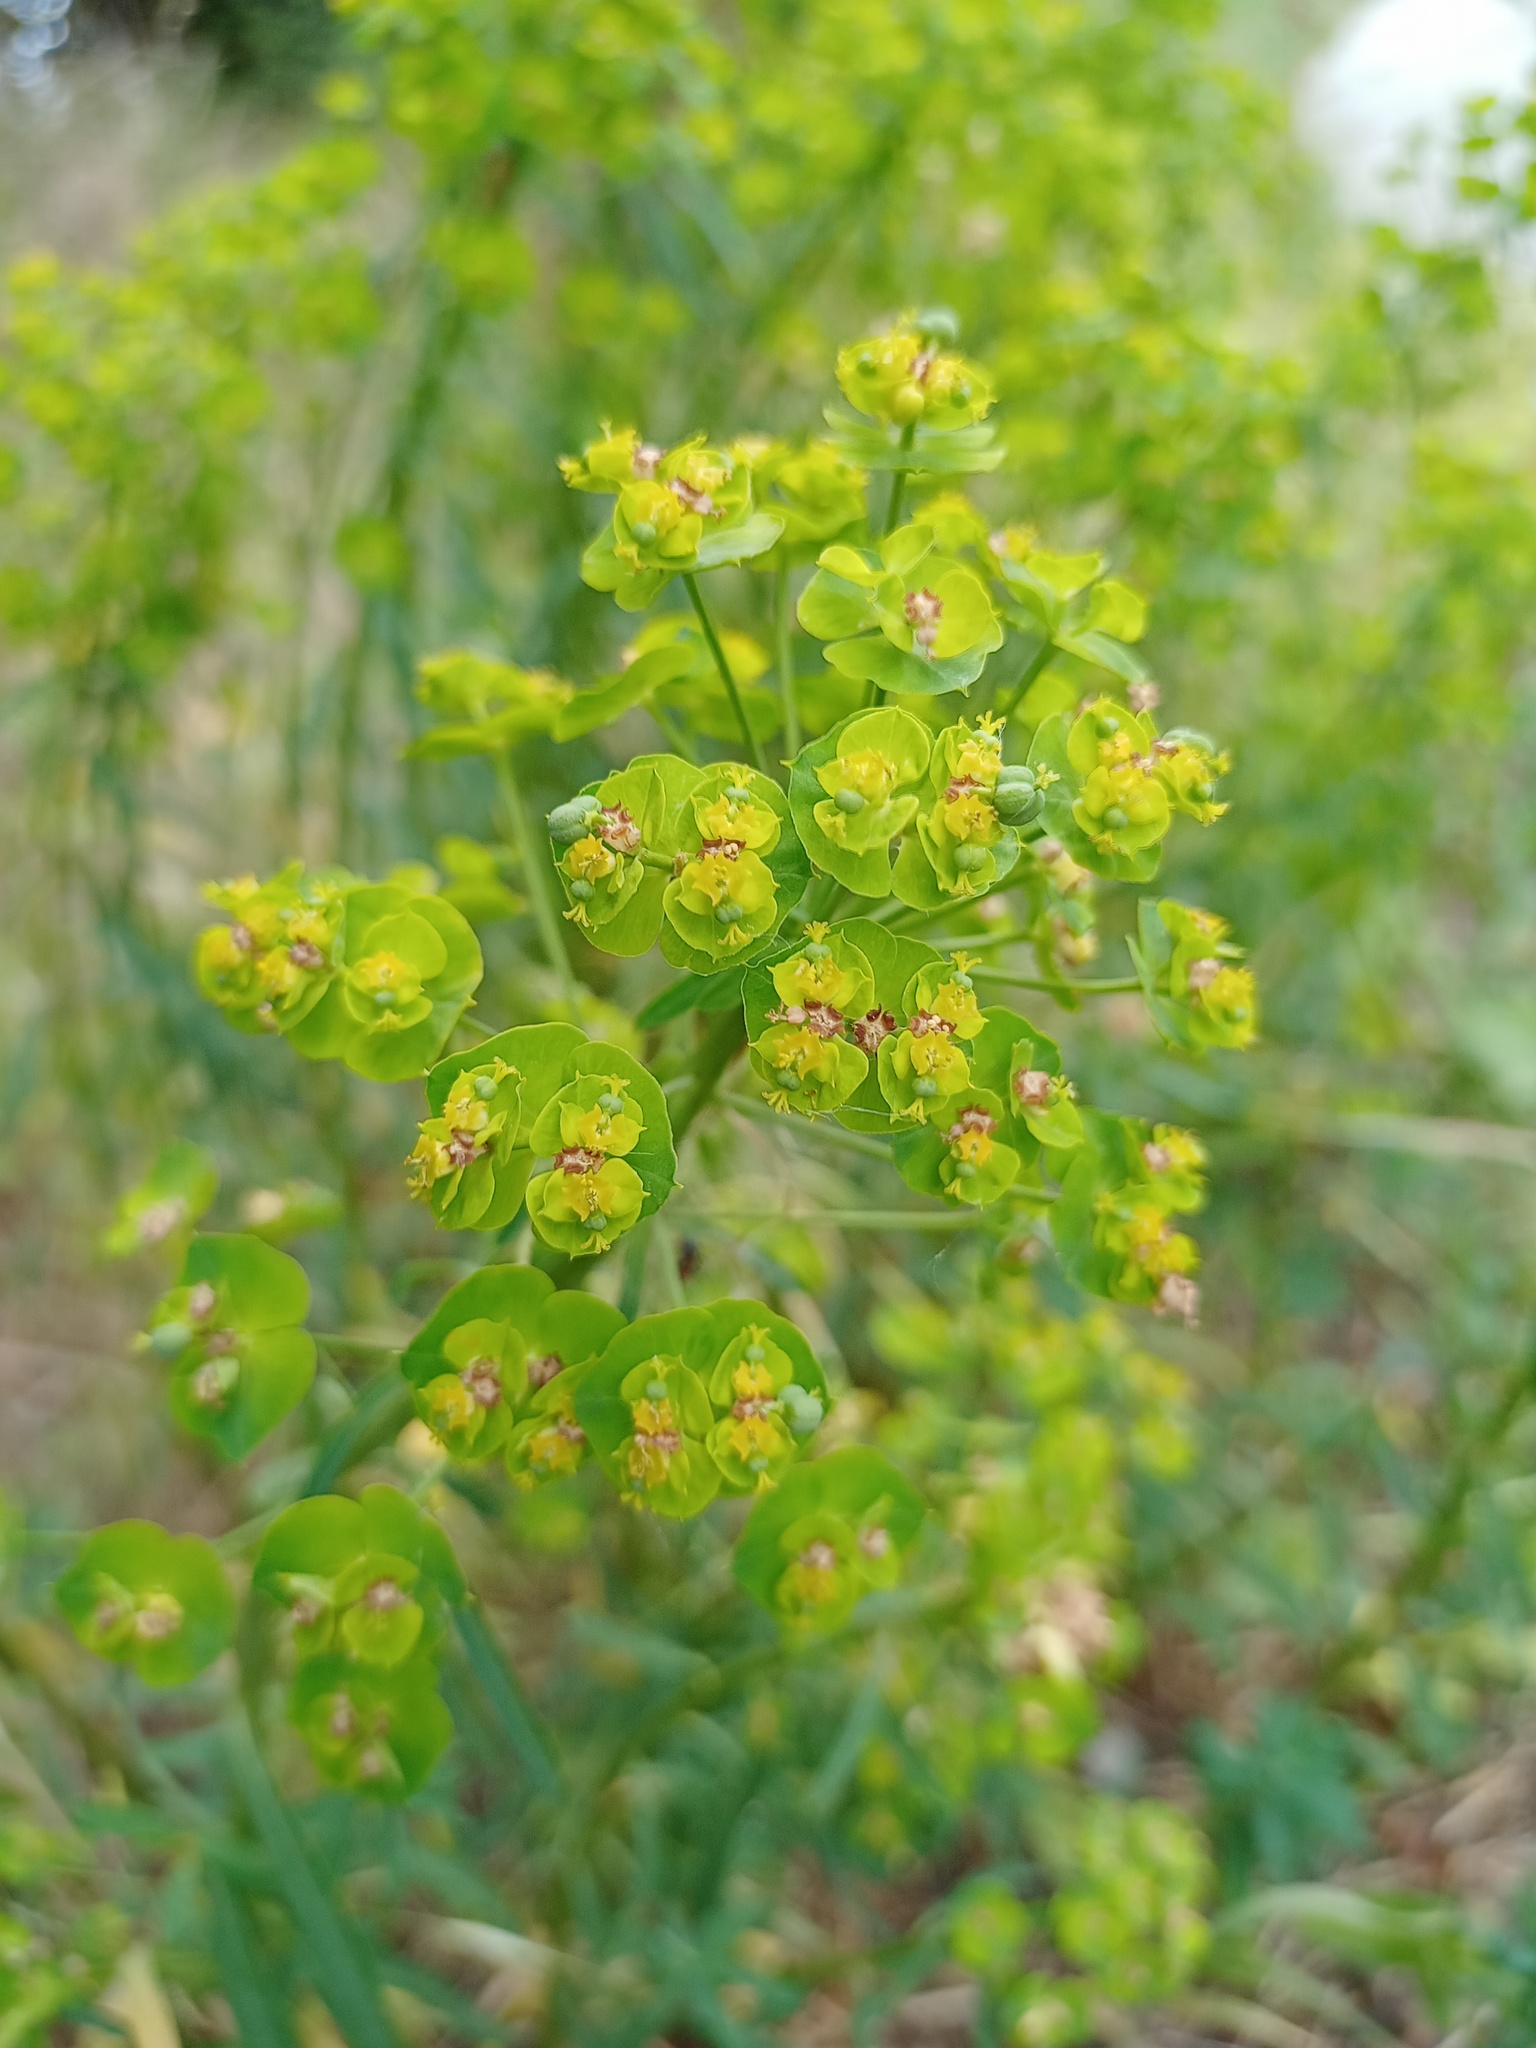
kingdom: Plantae
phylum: Tracheophyta
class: Magnoliopsida
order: Malpighiales
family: Euphorbiaceae
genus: Euphorbia
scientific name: Euphorbia esula
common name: Leafy spurge
